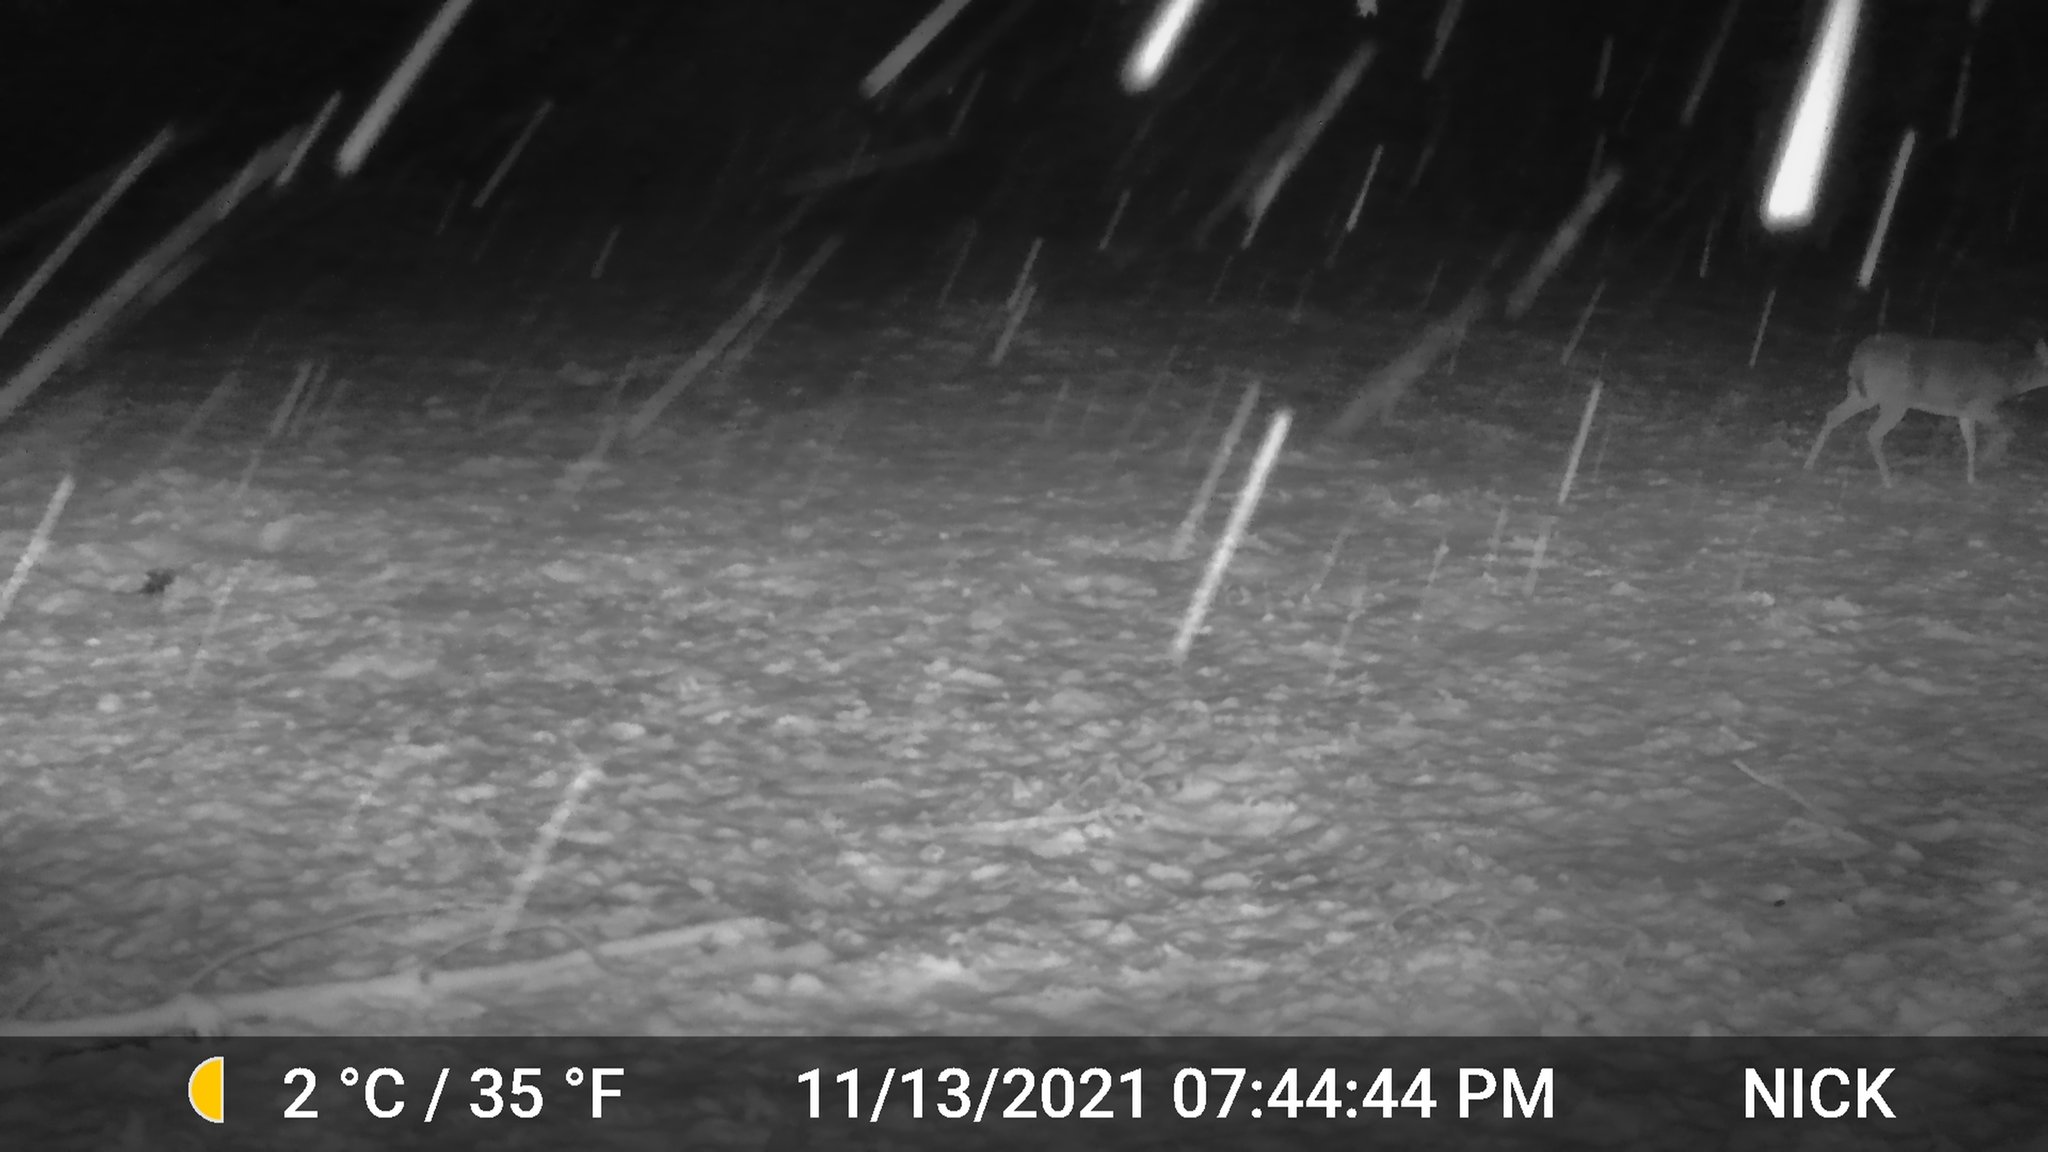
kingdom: Animalia
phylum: Chordata
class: Mammalia
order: Artiodactyla
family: Cervidae
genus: Odocoileus
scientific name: Odocoileus virginianus
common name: White-tailed deer
